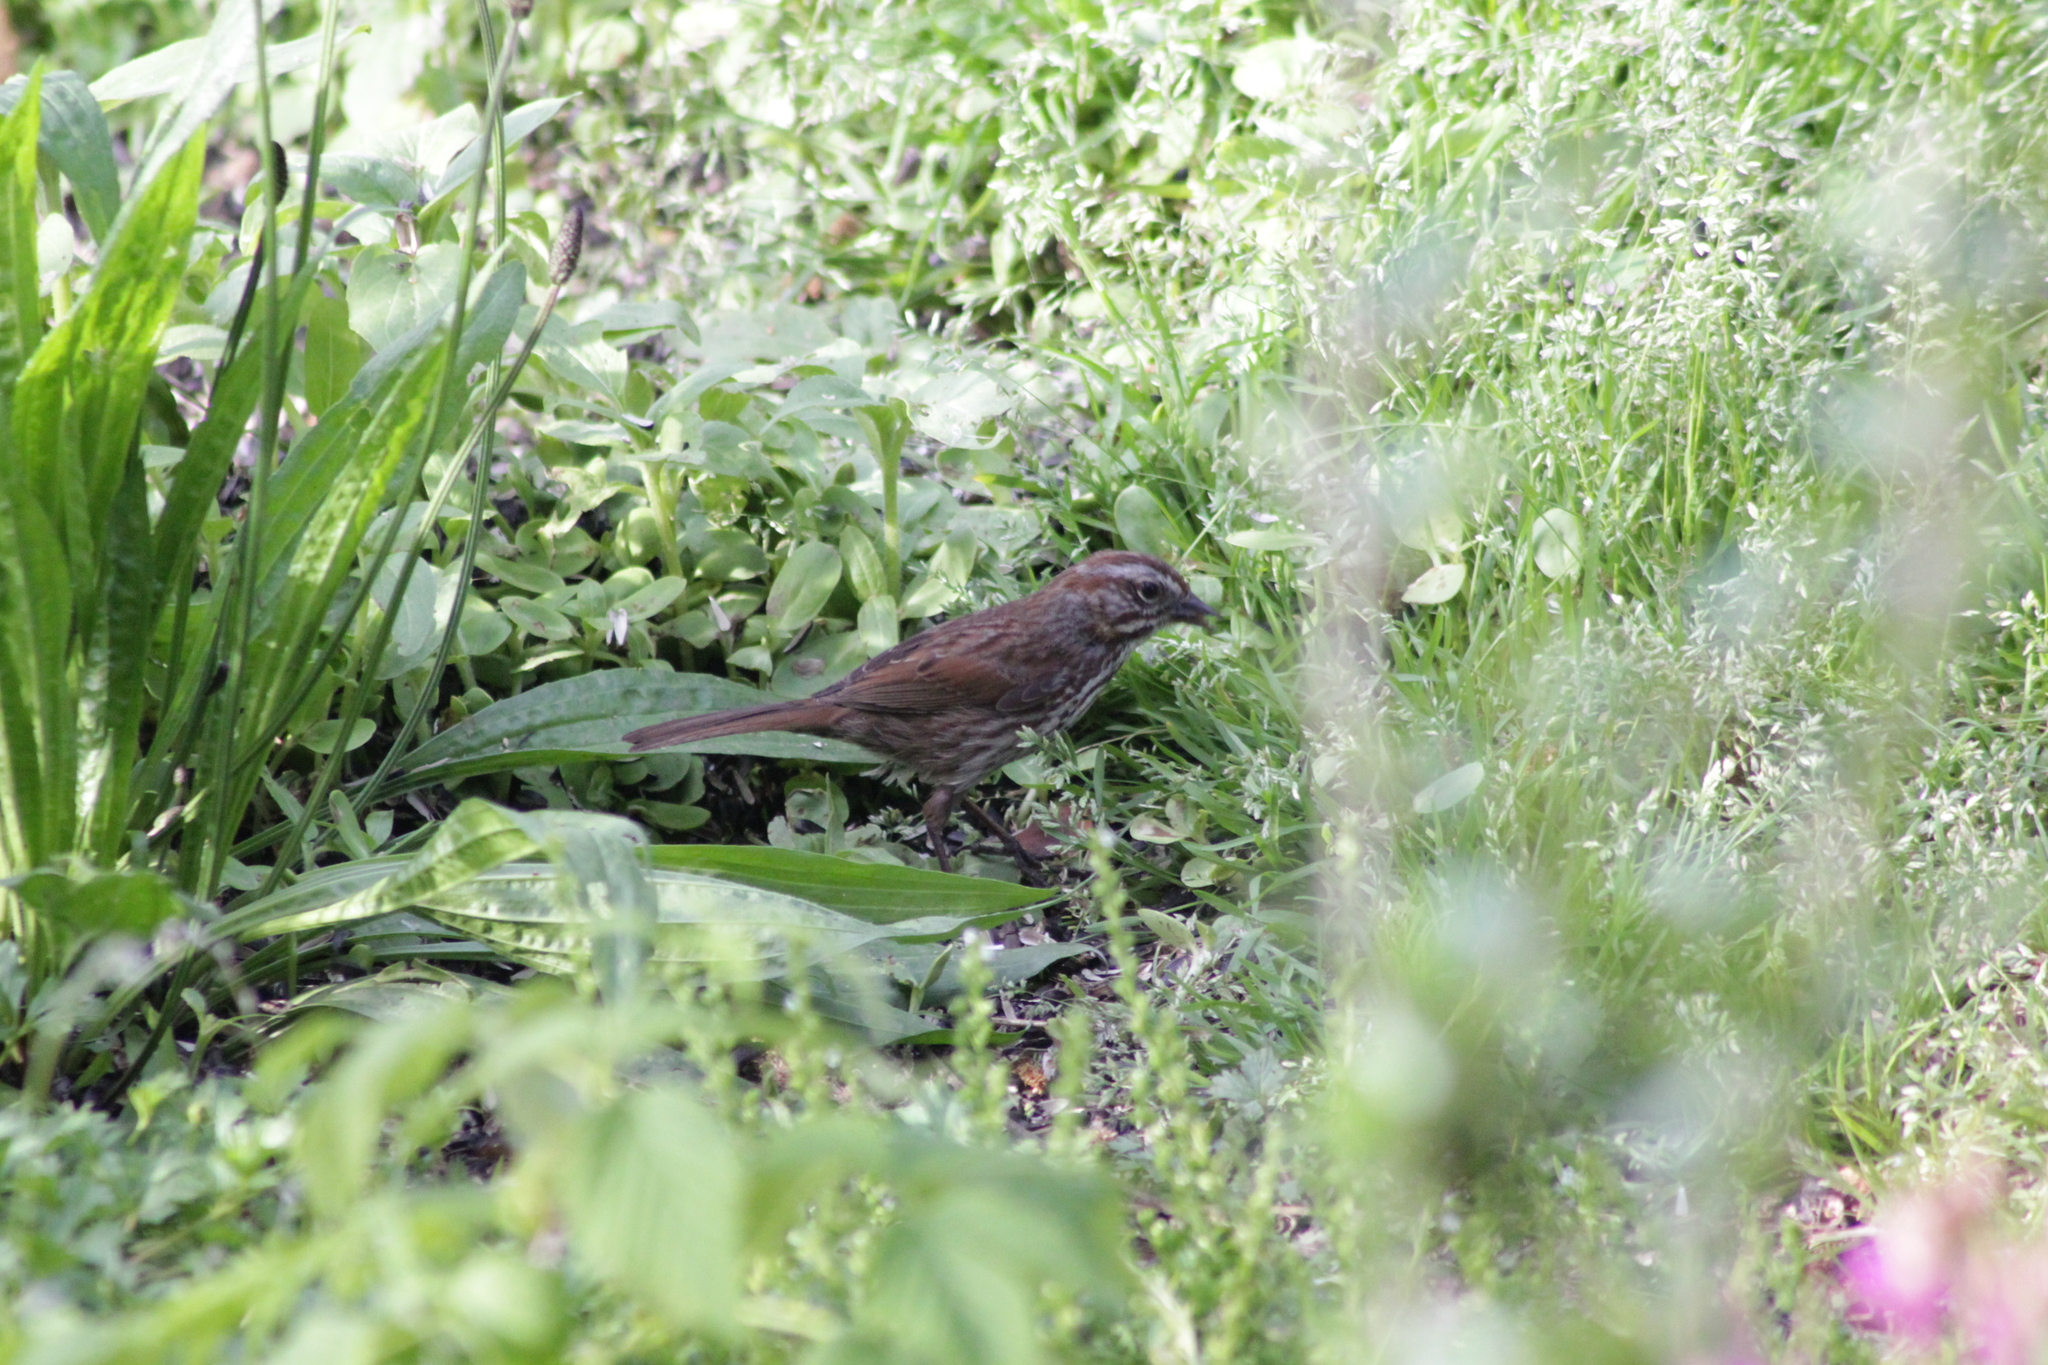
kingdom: Animalia
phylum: Chordata
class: Aves
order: Passeriformes
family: Passerellidae
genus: Melospiza
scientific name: Melospiza melodia
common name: Song sparrow
